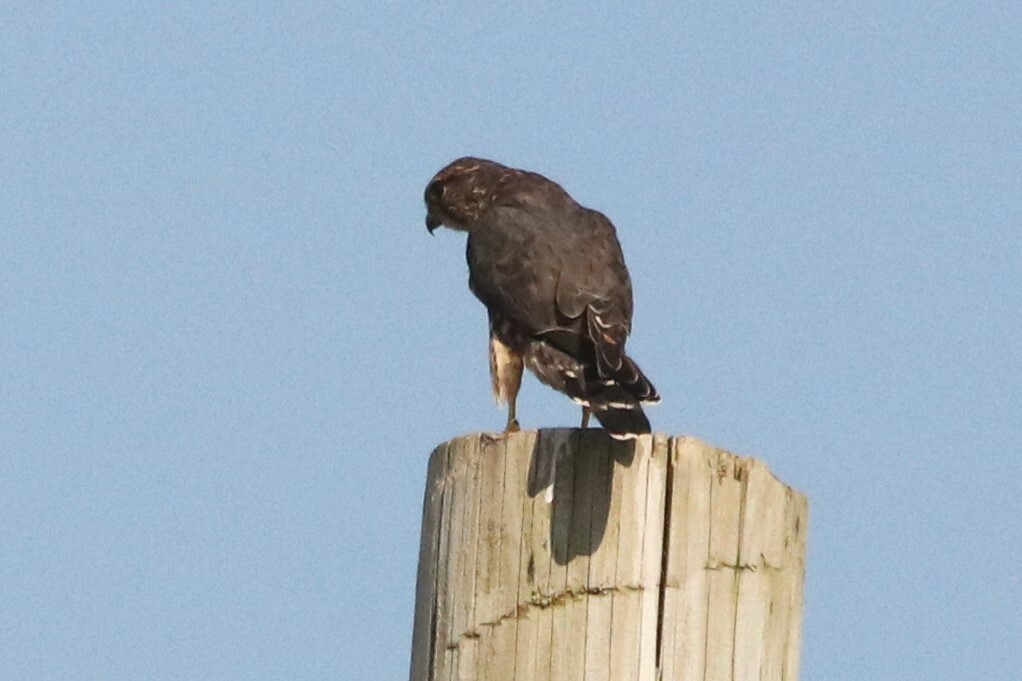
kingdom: Animalia
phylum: Chordata
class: Aves
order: Falconiformes
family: Falconidae
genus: Falco
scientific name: Falco columbarius
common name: Merlin
